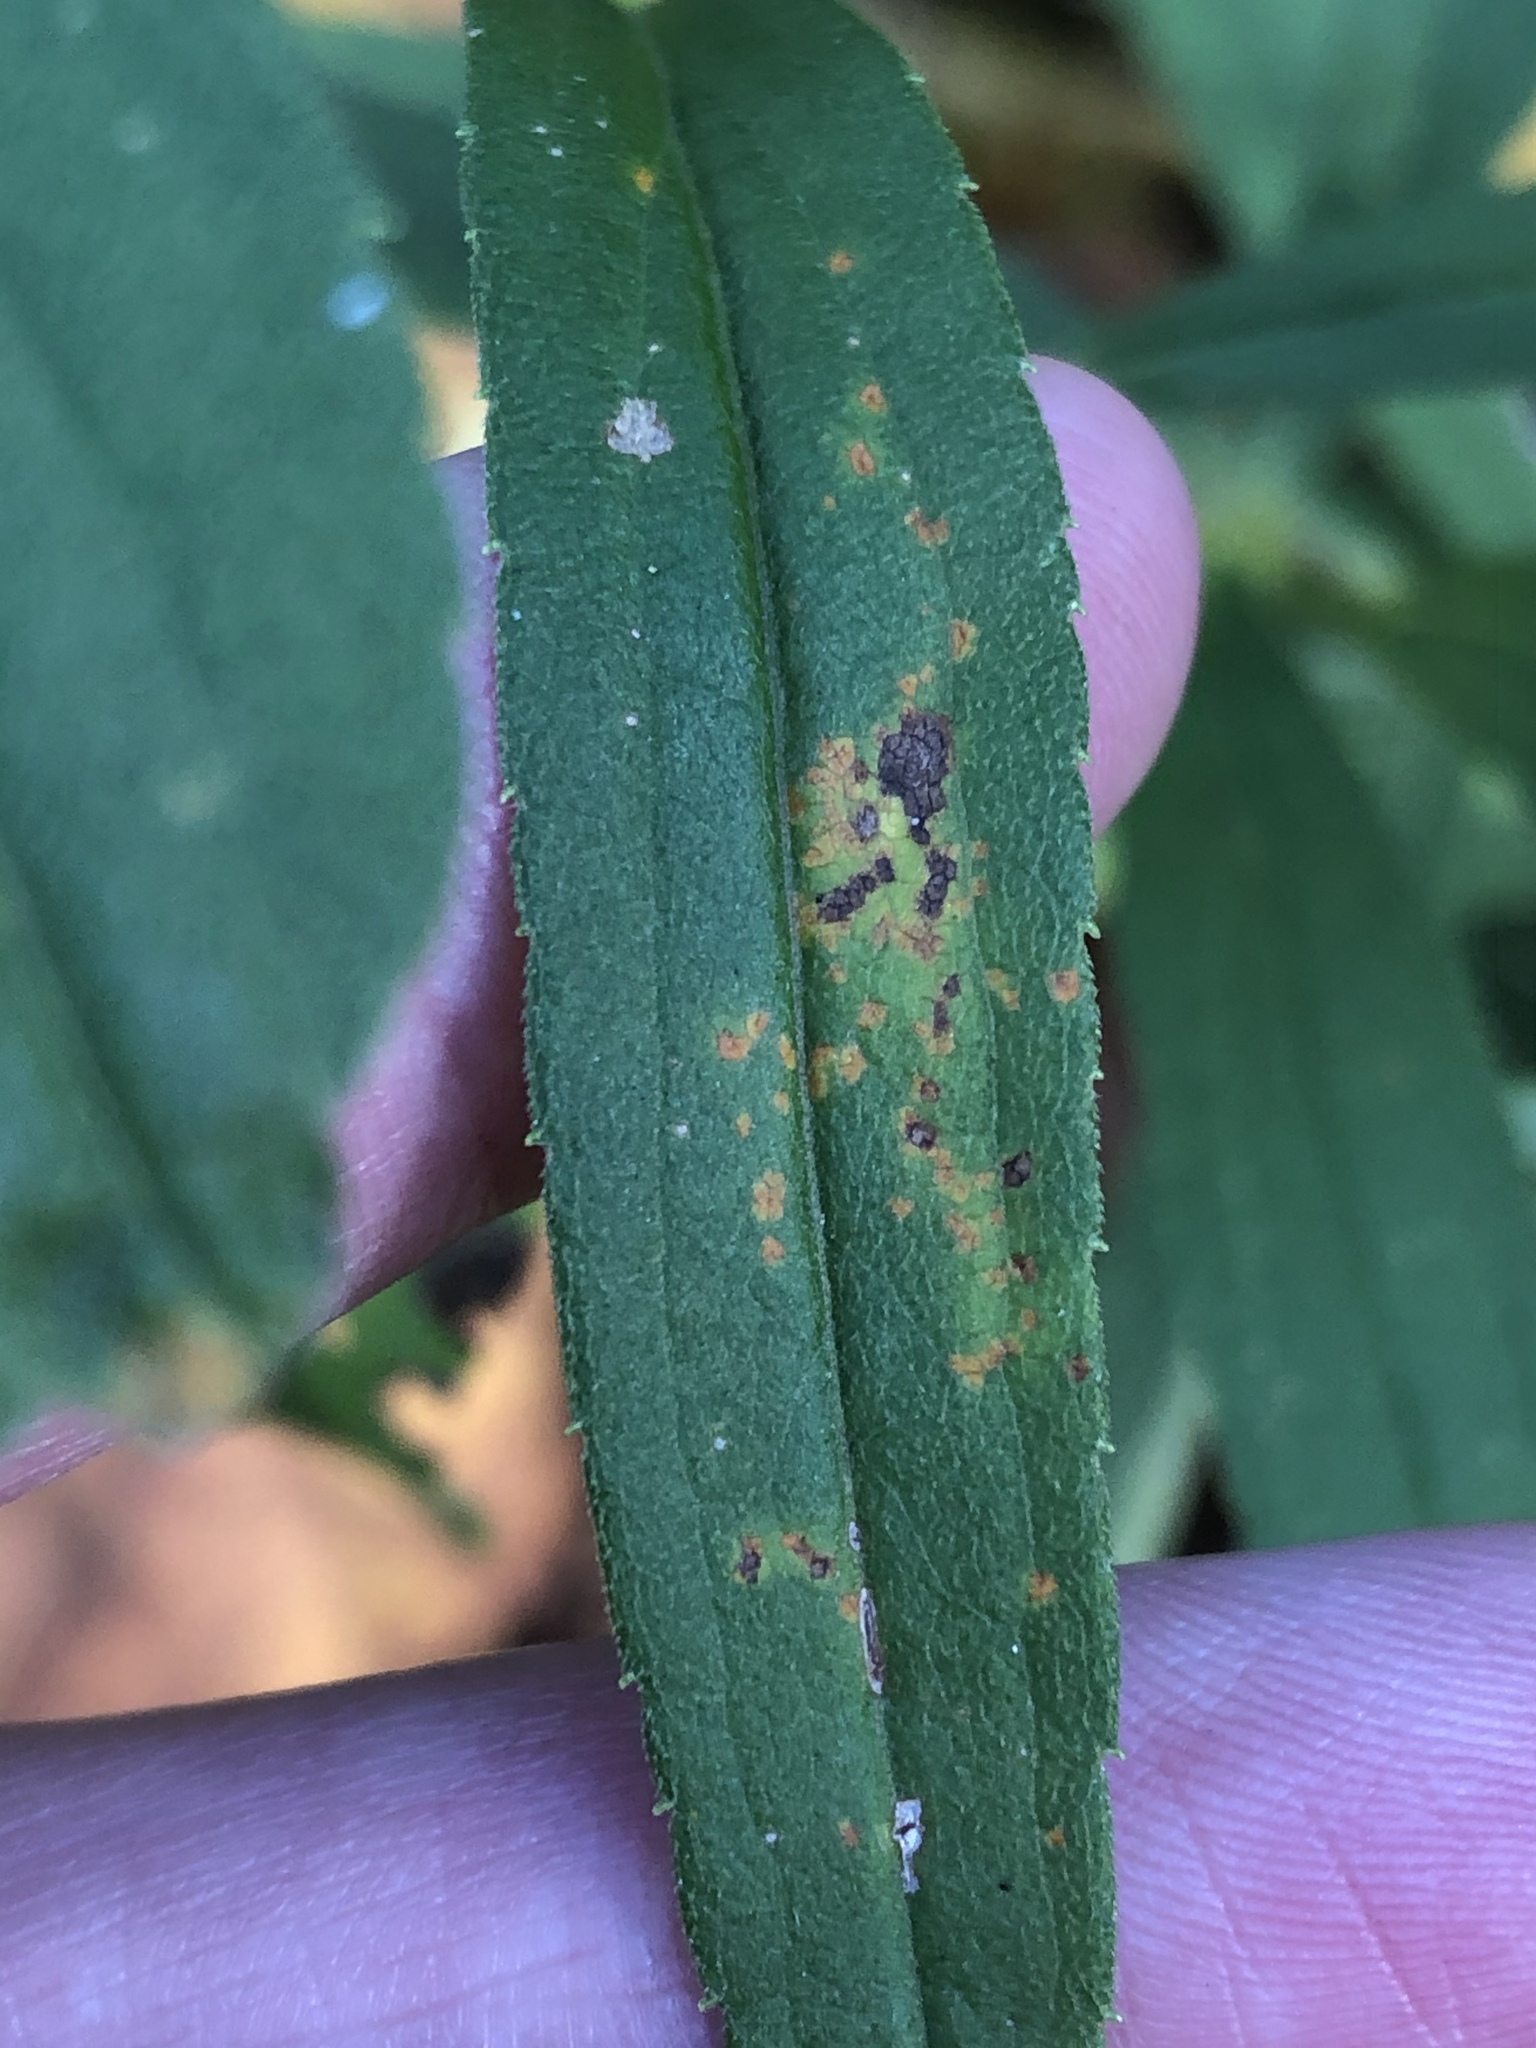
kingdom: Fungi
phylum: Basidiomycota
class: Pucciniomycetes
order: Pucciniales
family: Coleosporiaceae
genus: Coleosporium
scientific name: Coleosporium asterum
